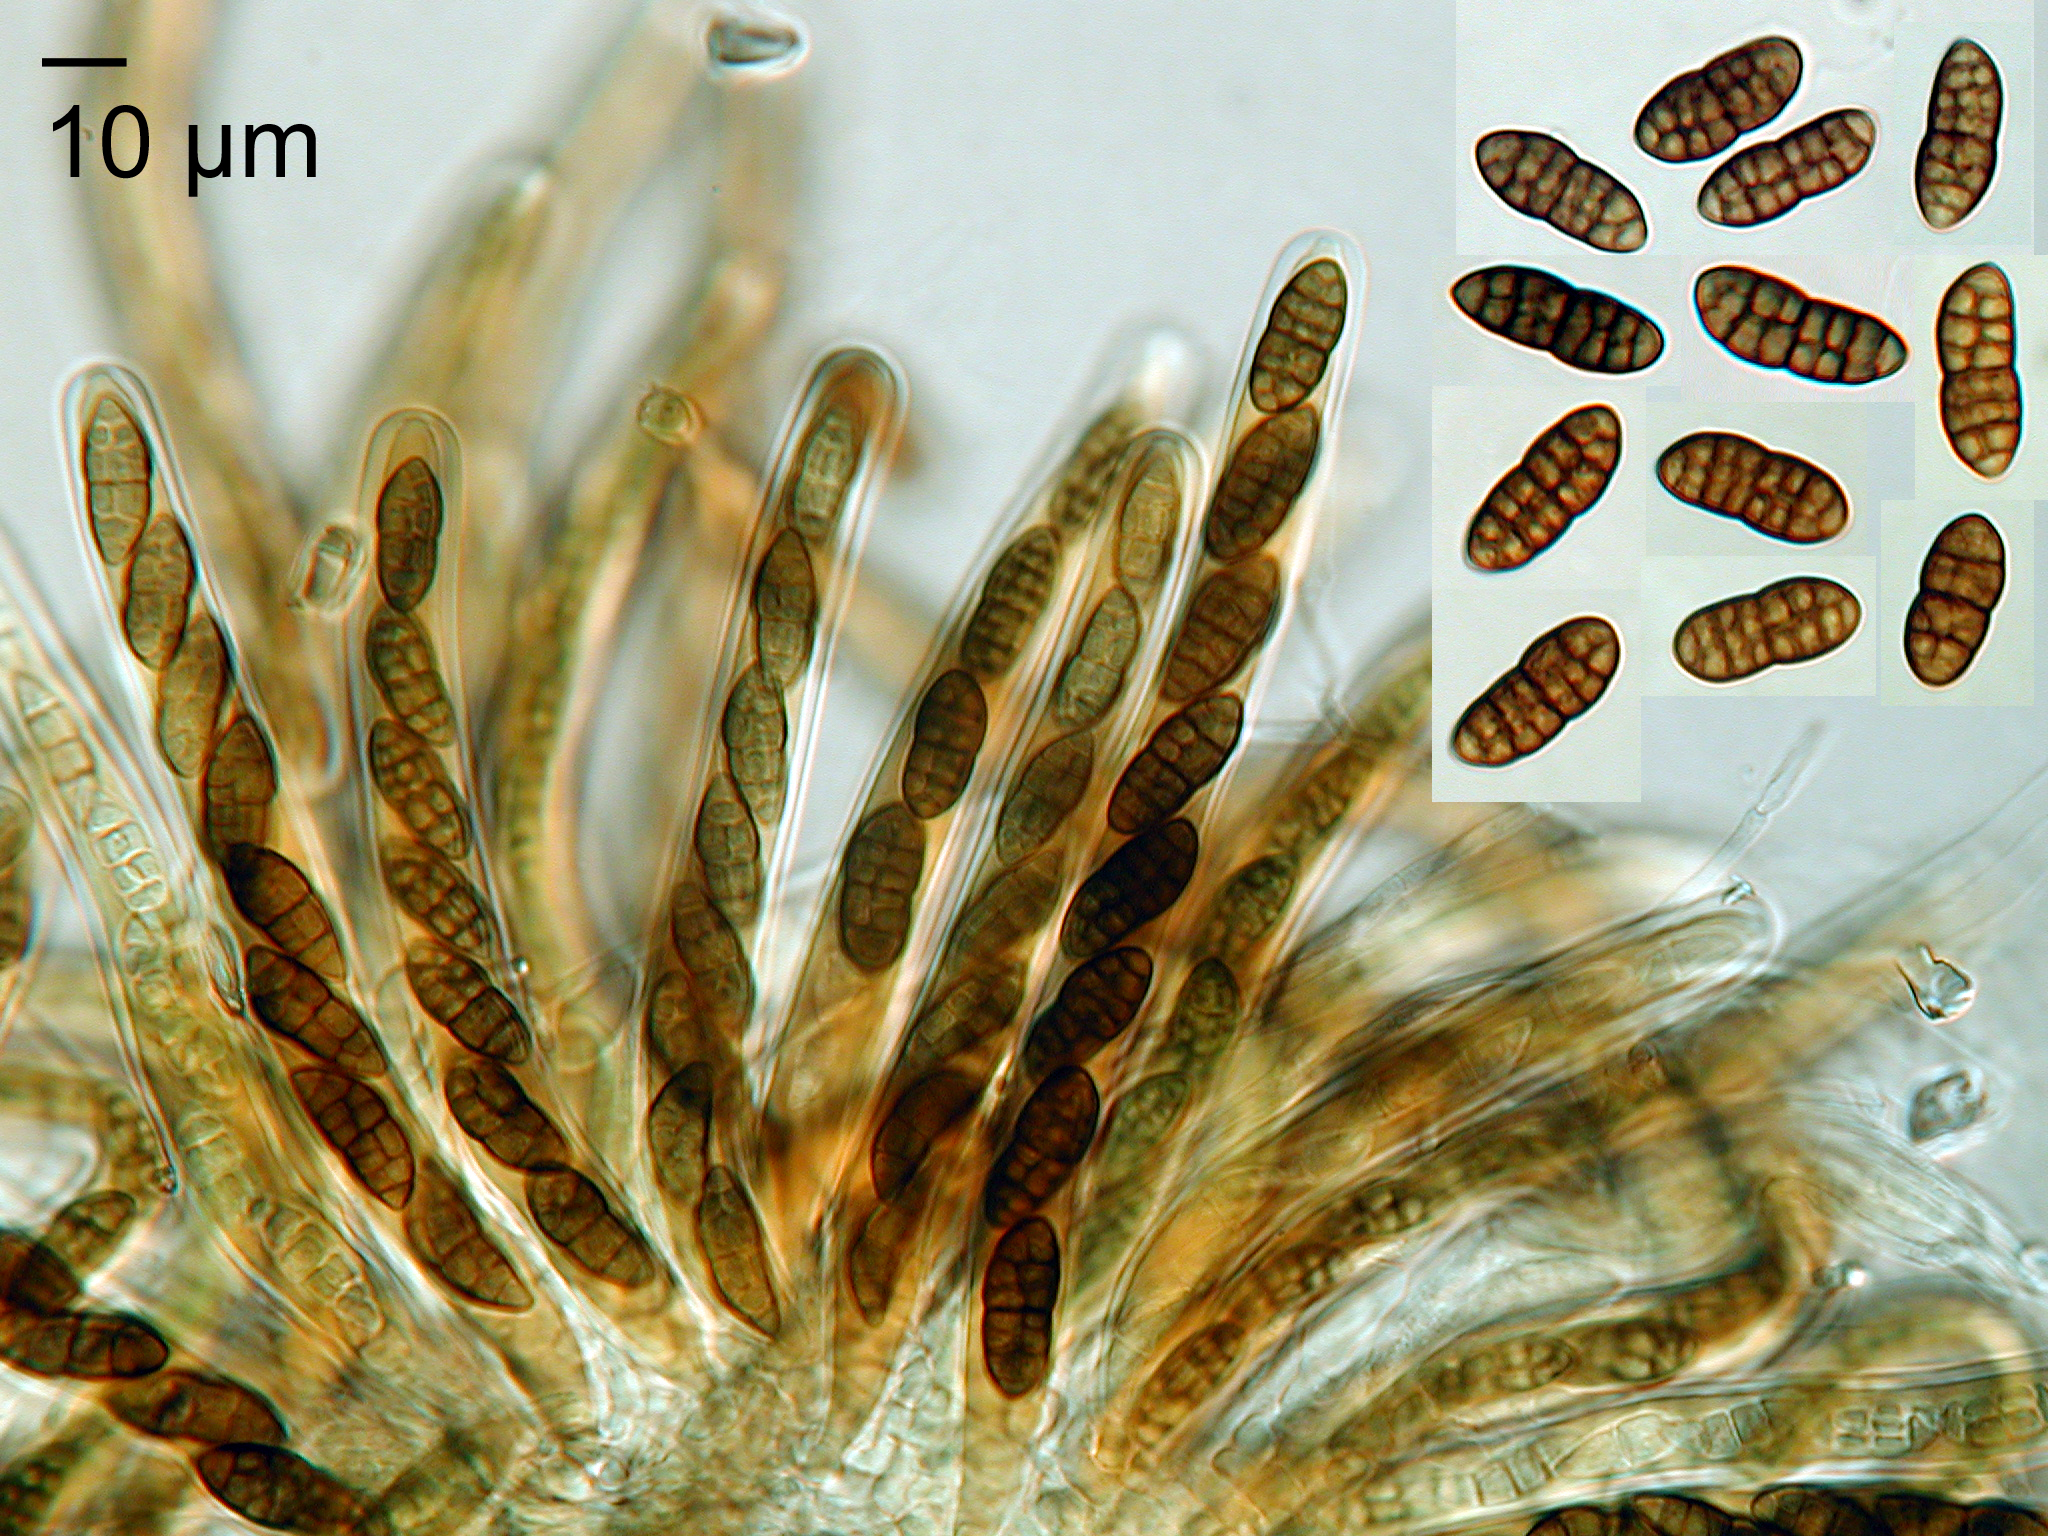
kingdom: Fungi
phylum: Ascomycota
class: Dothideomycetes
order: Pleosporales
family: Camarosporidiellaceae
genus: Camarosporidiella
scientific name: Camarosporidiella arezzoensis
